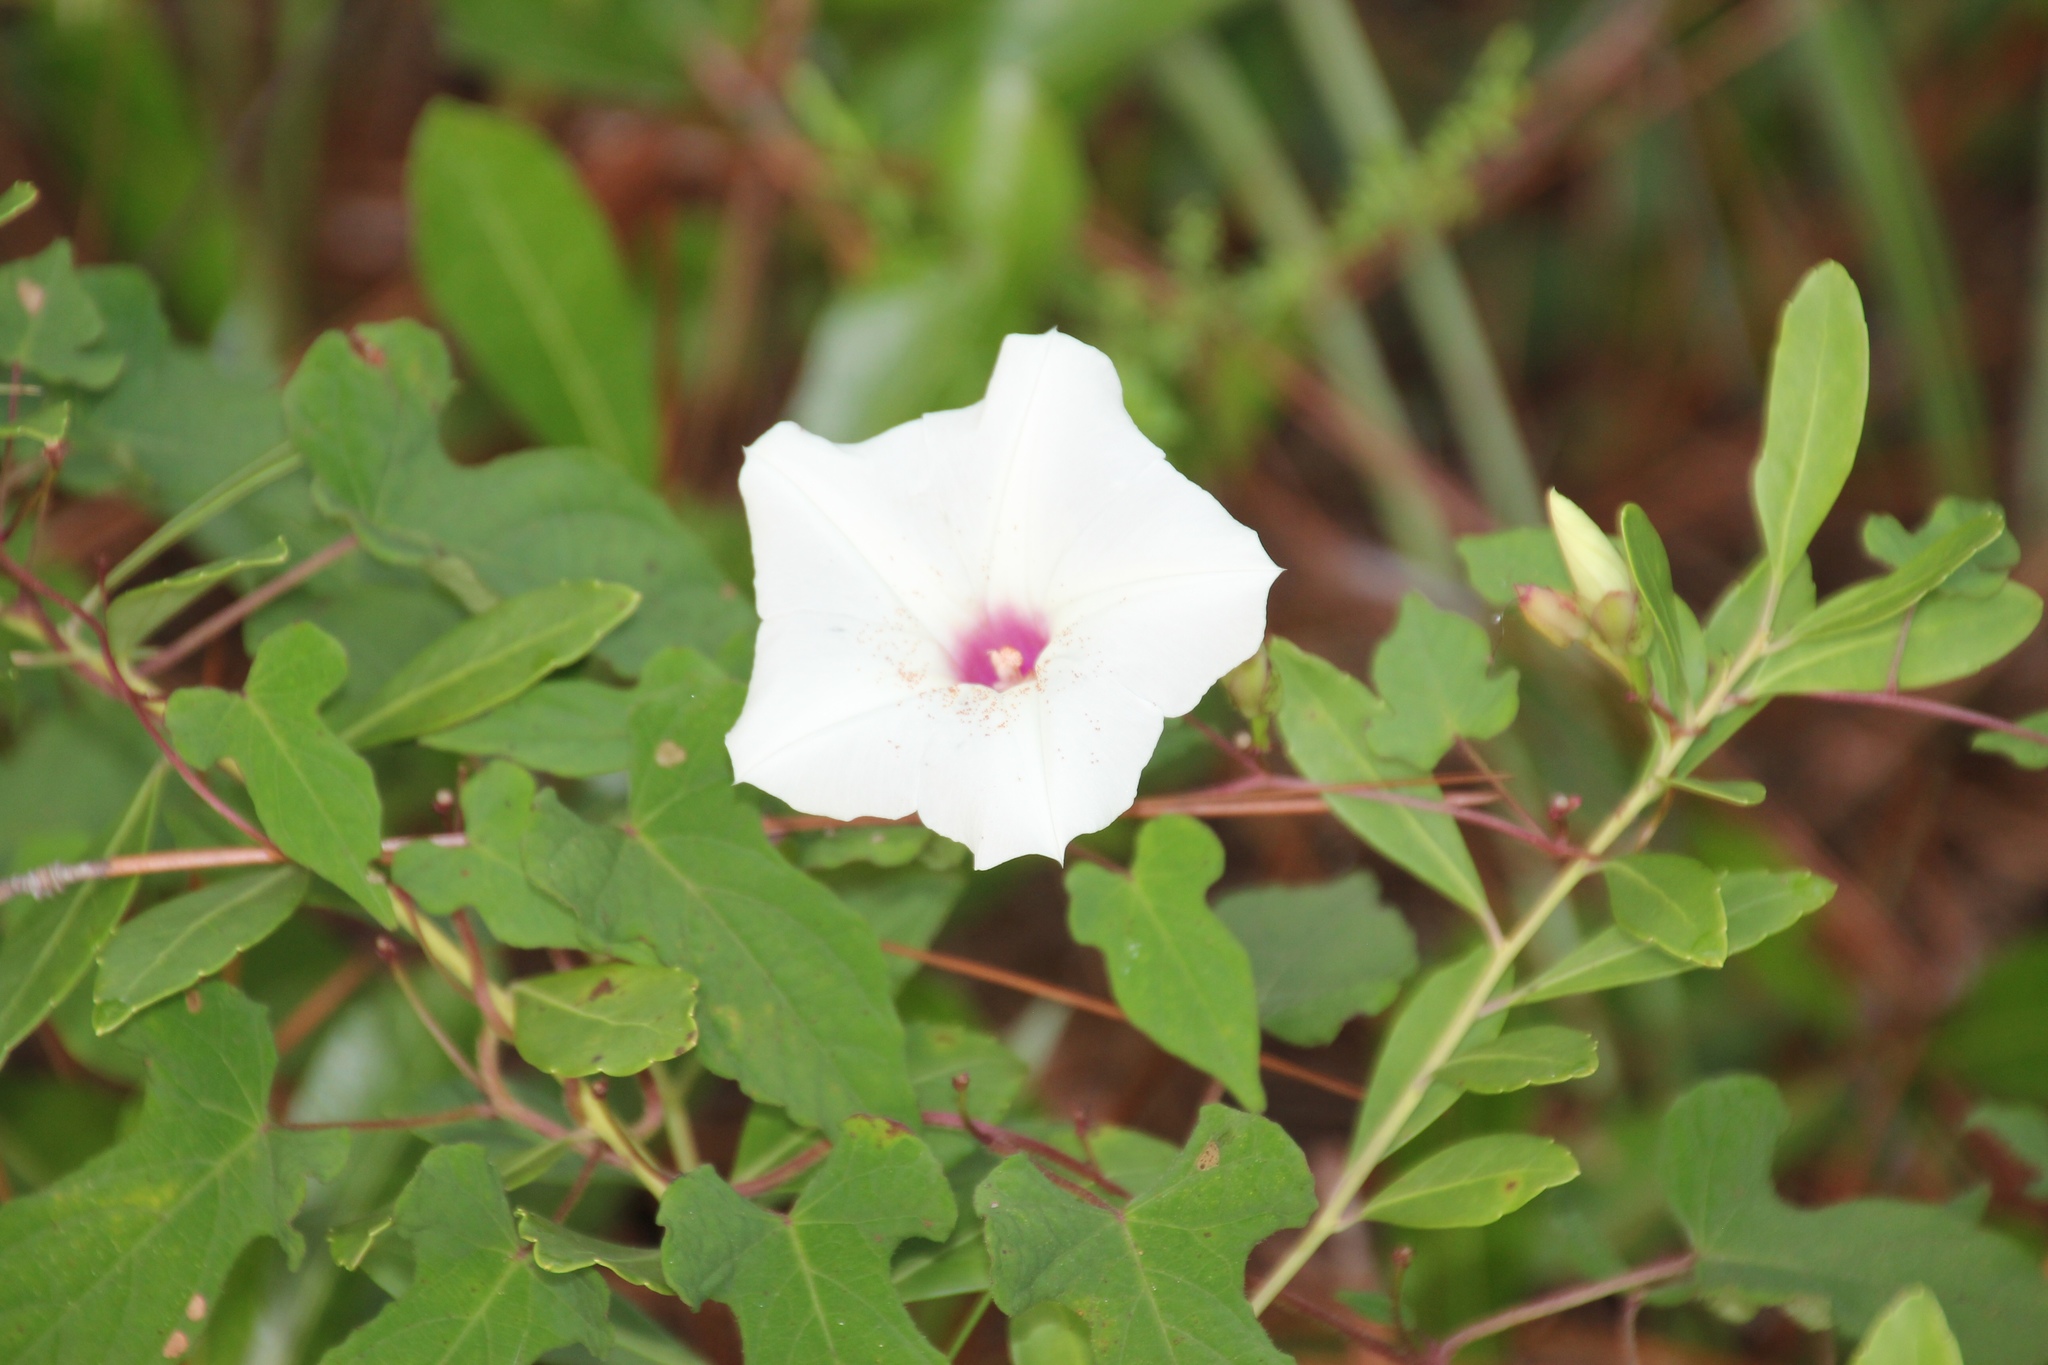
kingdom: Plantae
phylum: Tracheophyta
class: Magnoliopsida
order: Solanales
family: Convolvulaceae
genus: Ipomoea
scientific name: Ipomoea pandurata
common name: Man-of-the-earth
